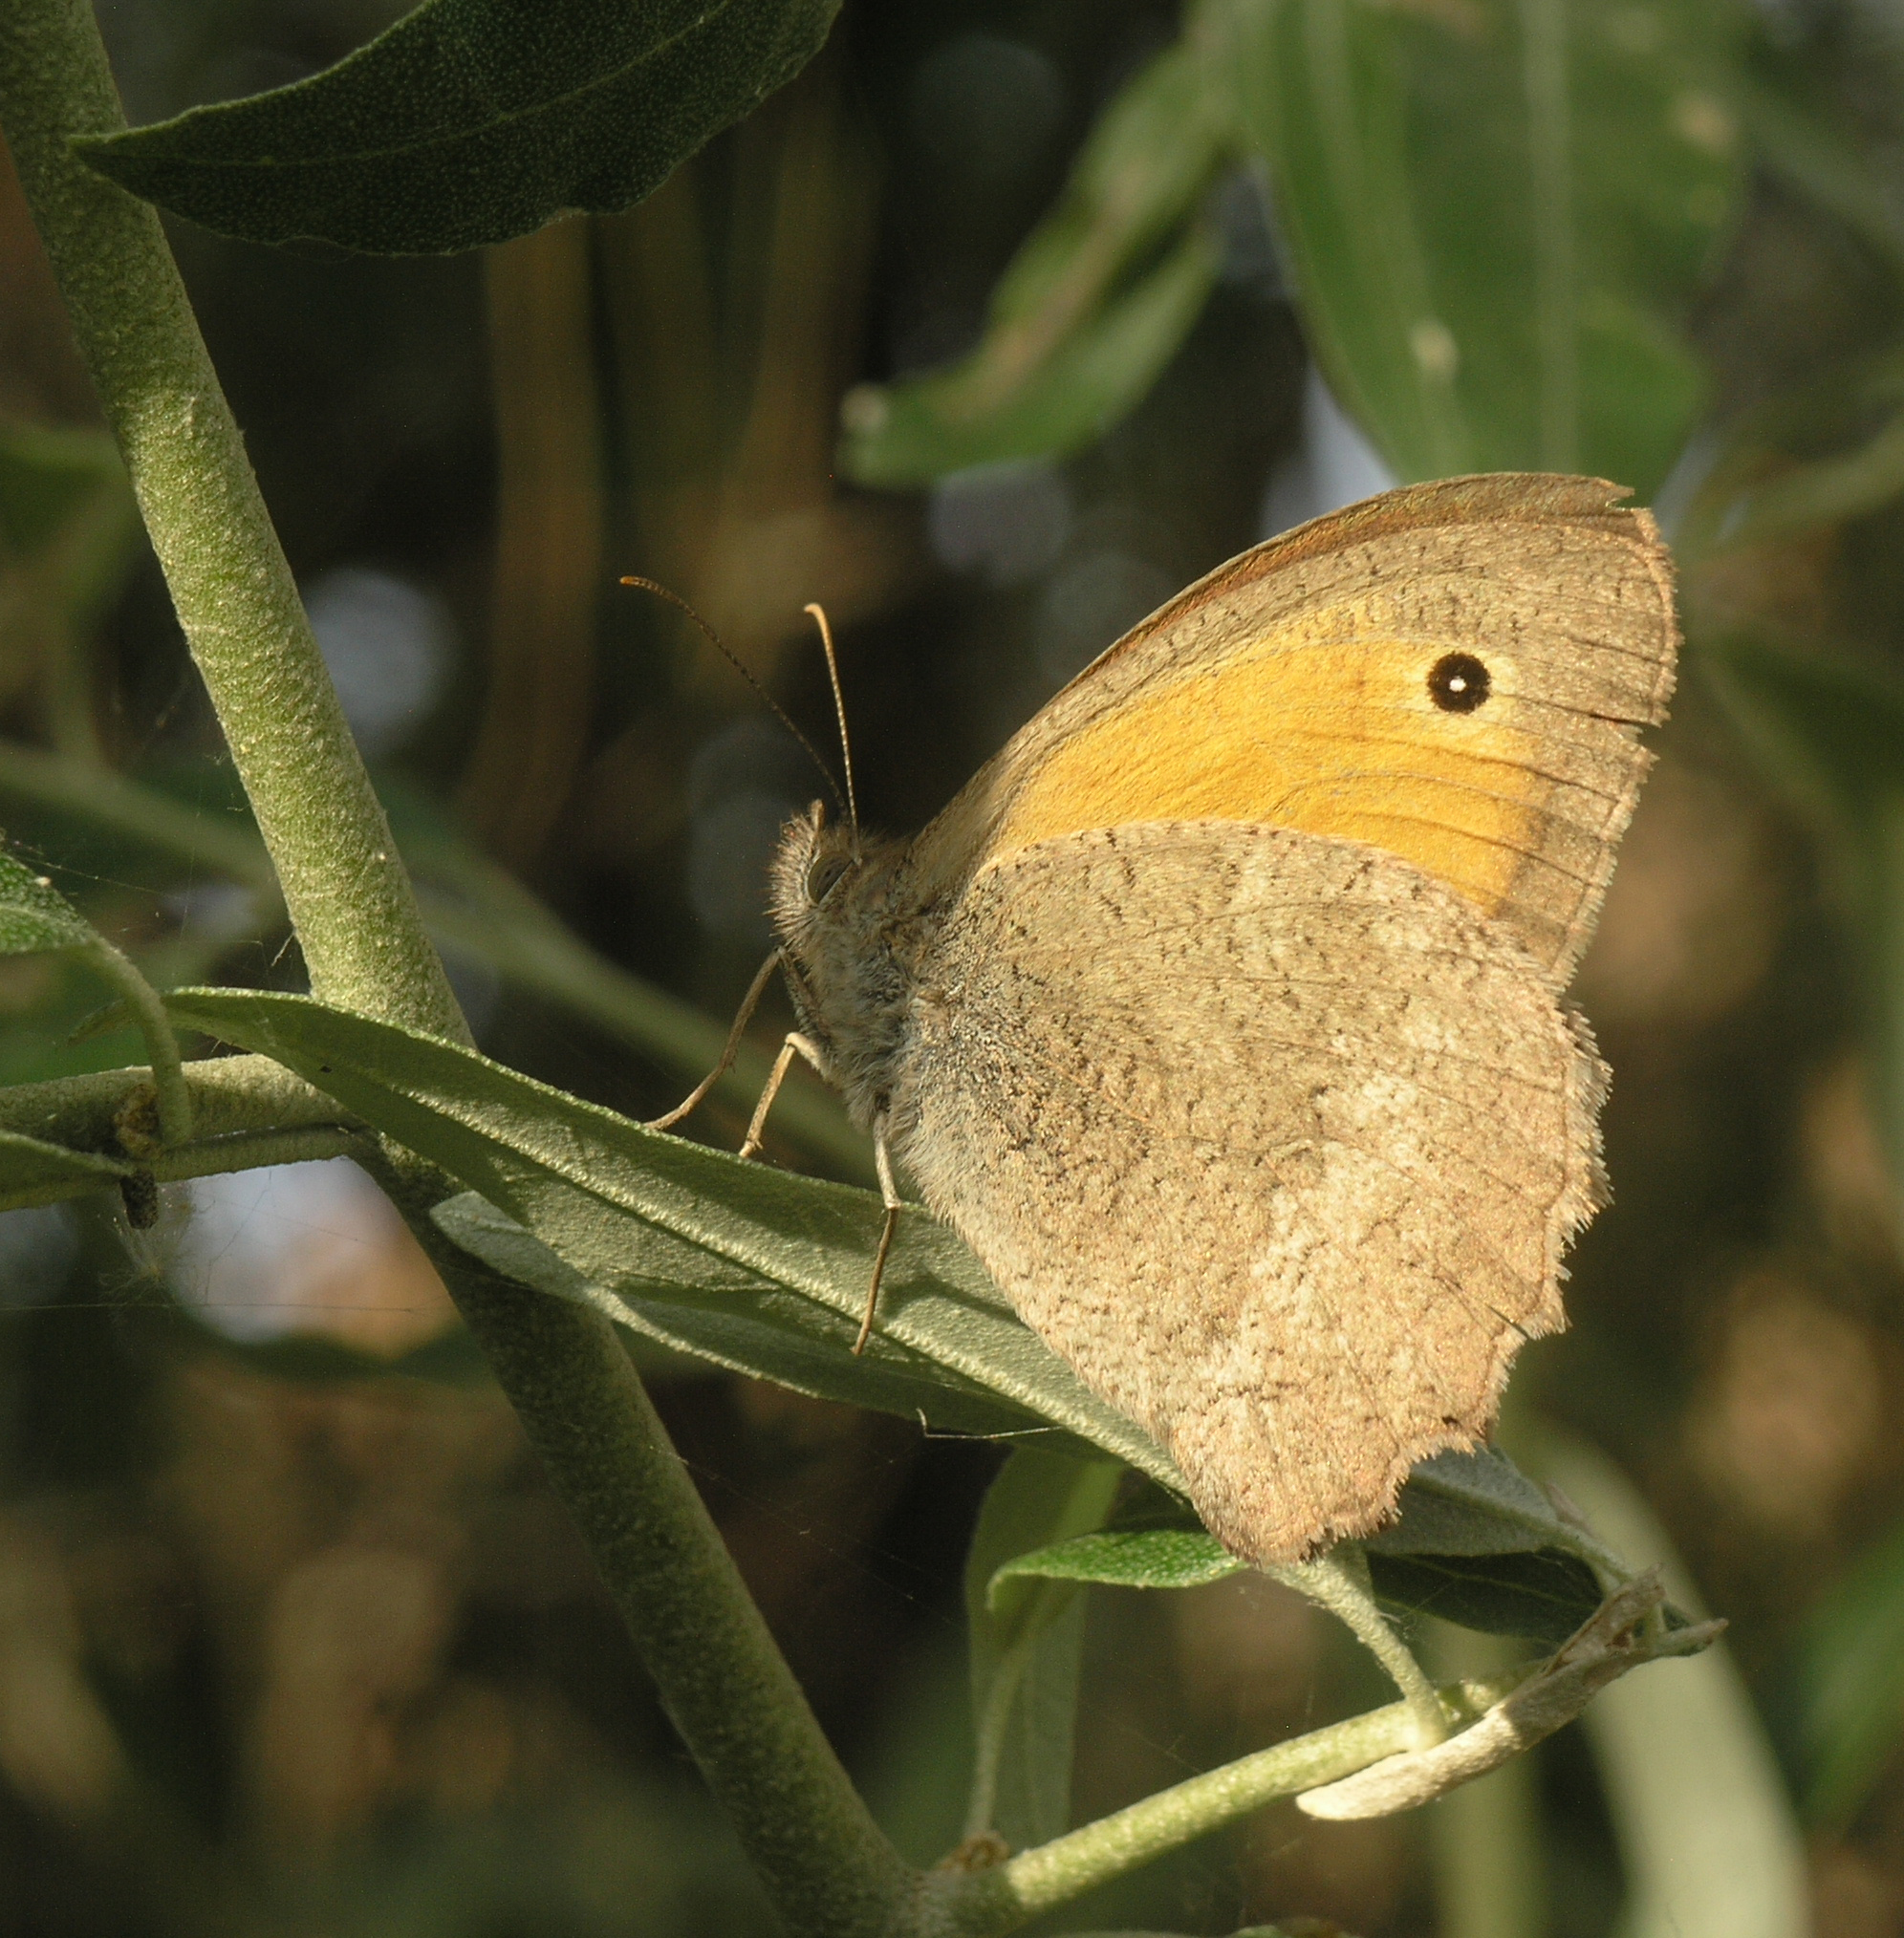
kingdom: Animalia
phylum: Arthropoda
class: Insecta
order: Lepidoptera
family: Nymphalidae
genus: Hyponephele
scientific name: Hyponephele lupinus
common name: Oriental meadow brown
